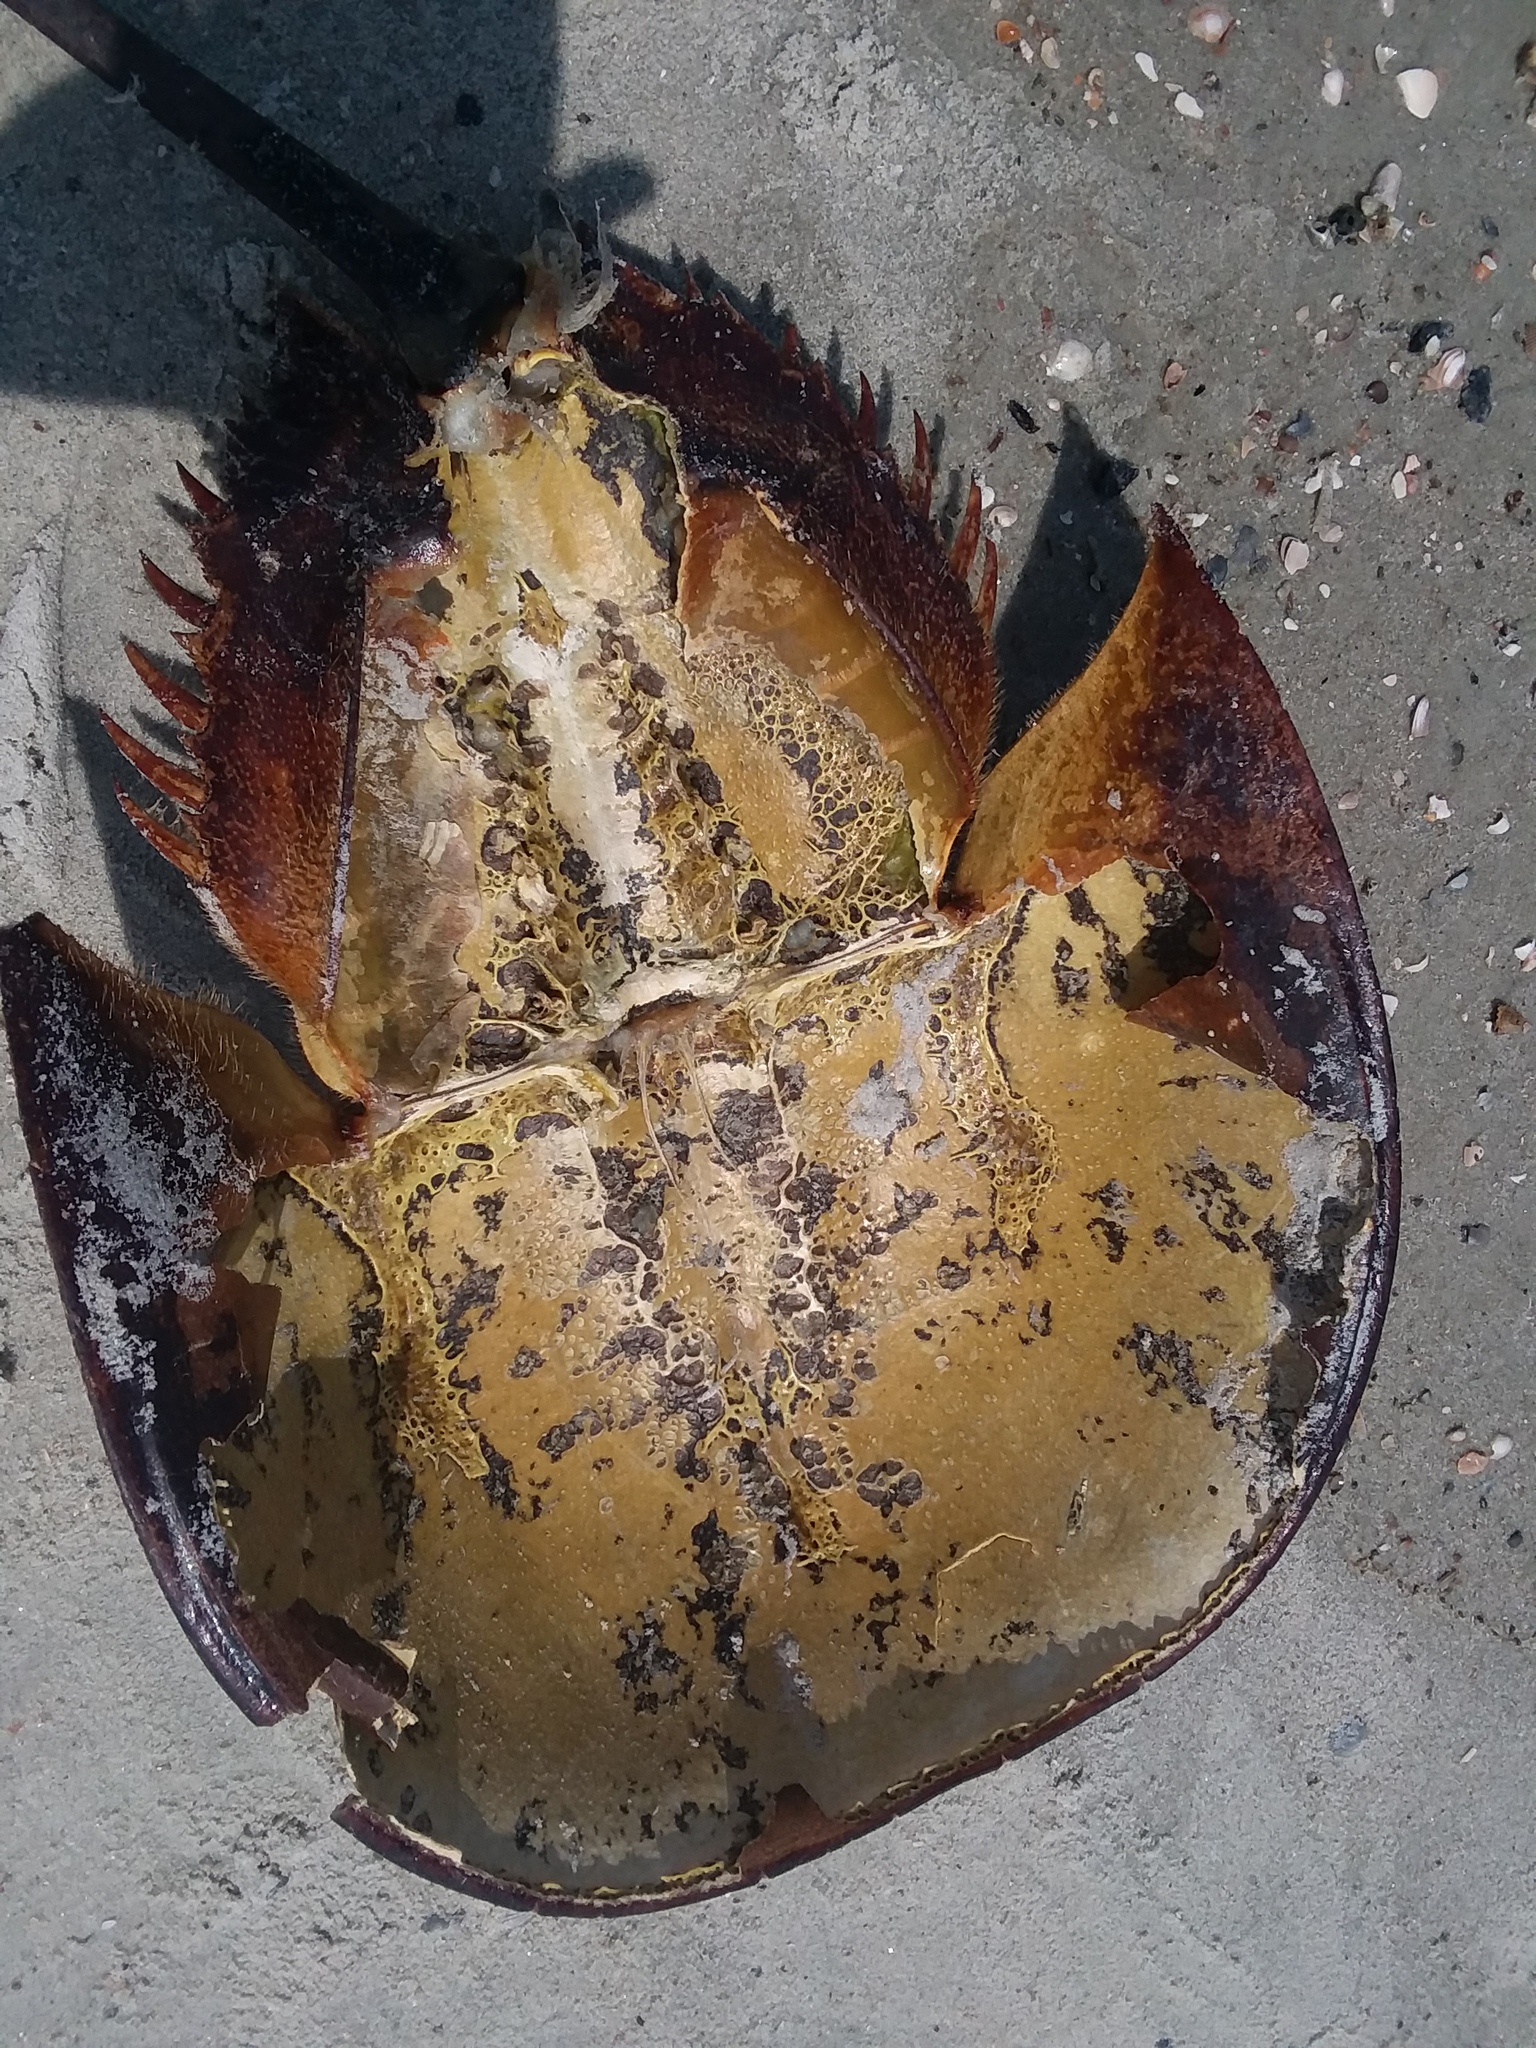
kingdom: Animalia
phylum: Arthropoda
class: Merostomata
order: Xiphosurida
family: Limulidae
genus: Limulus
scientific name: Limulus polyphemus
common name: Horseshoe crab
